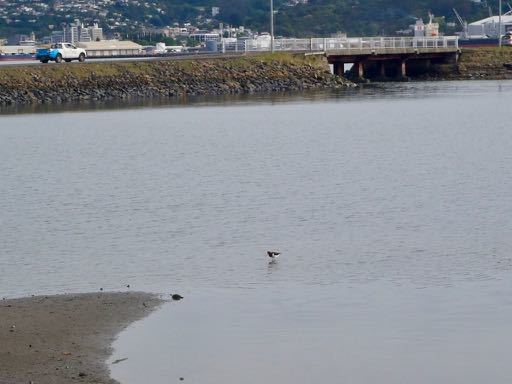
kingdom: Animalia
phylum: Chordata
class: Aves
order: Charadriiformes
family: Haematopodidae
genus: Haematopus
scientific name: Haematopus finschi
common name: South island oystercatcher
